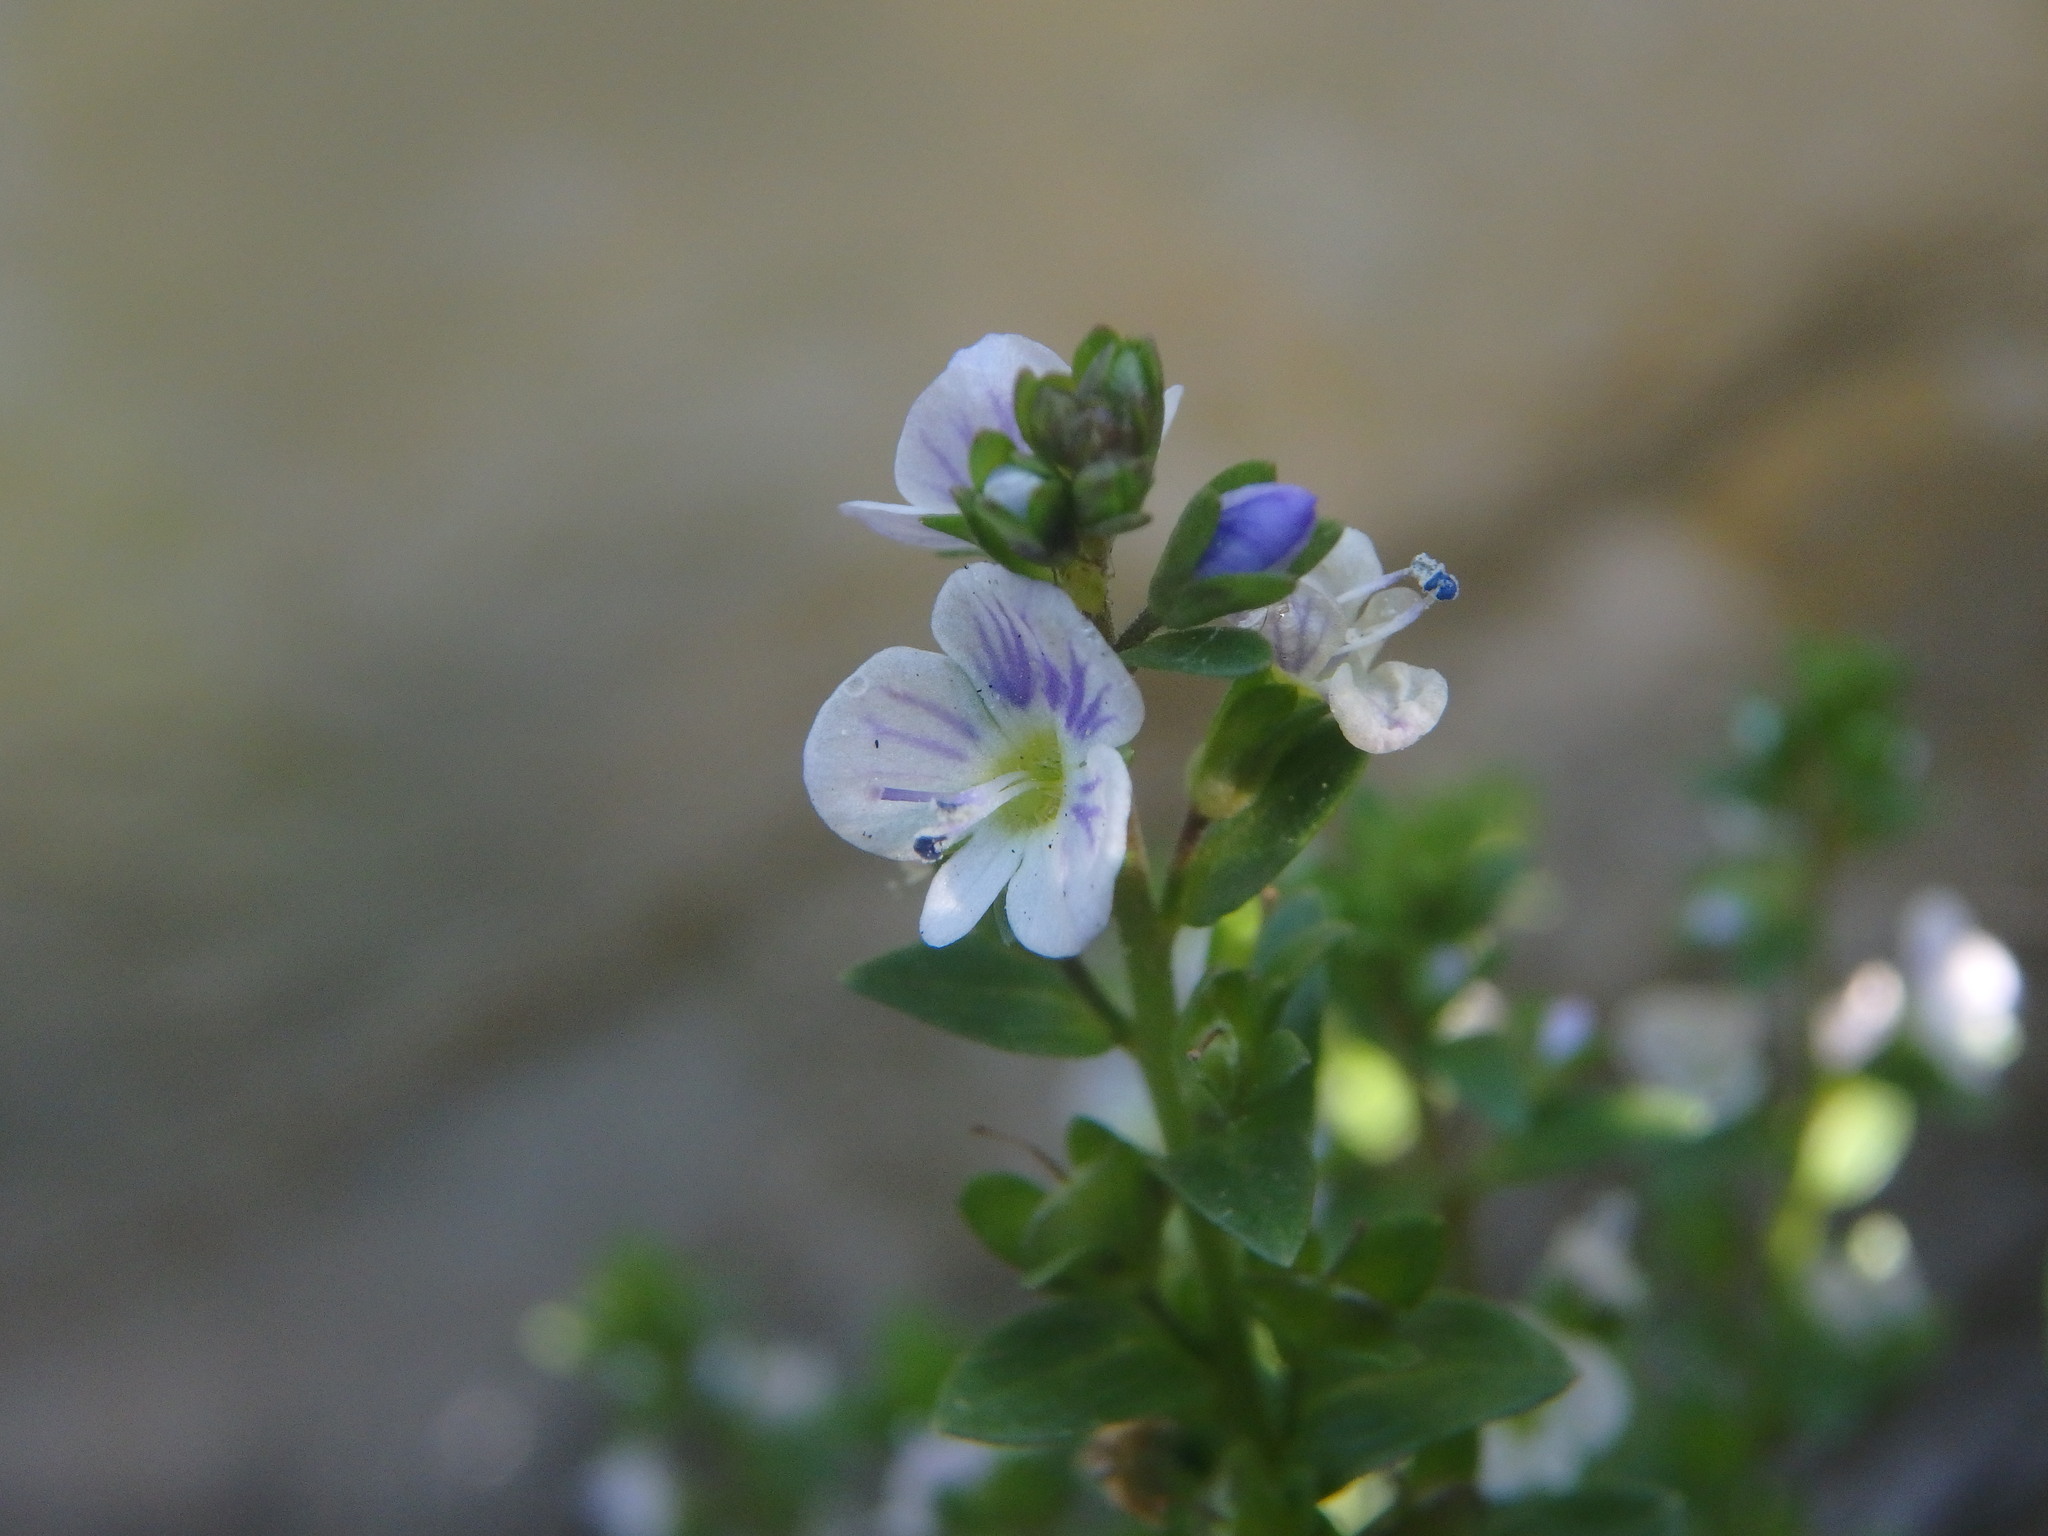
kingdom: Plantae
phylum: Tracheophyta
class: Magnoliopsida
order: Lamiales
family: Plantaginaceae
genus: Veronica
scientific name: Veronica serpyllifolia
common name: Thyme-leaved speedwell
